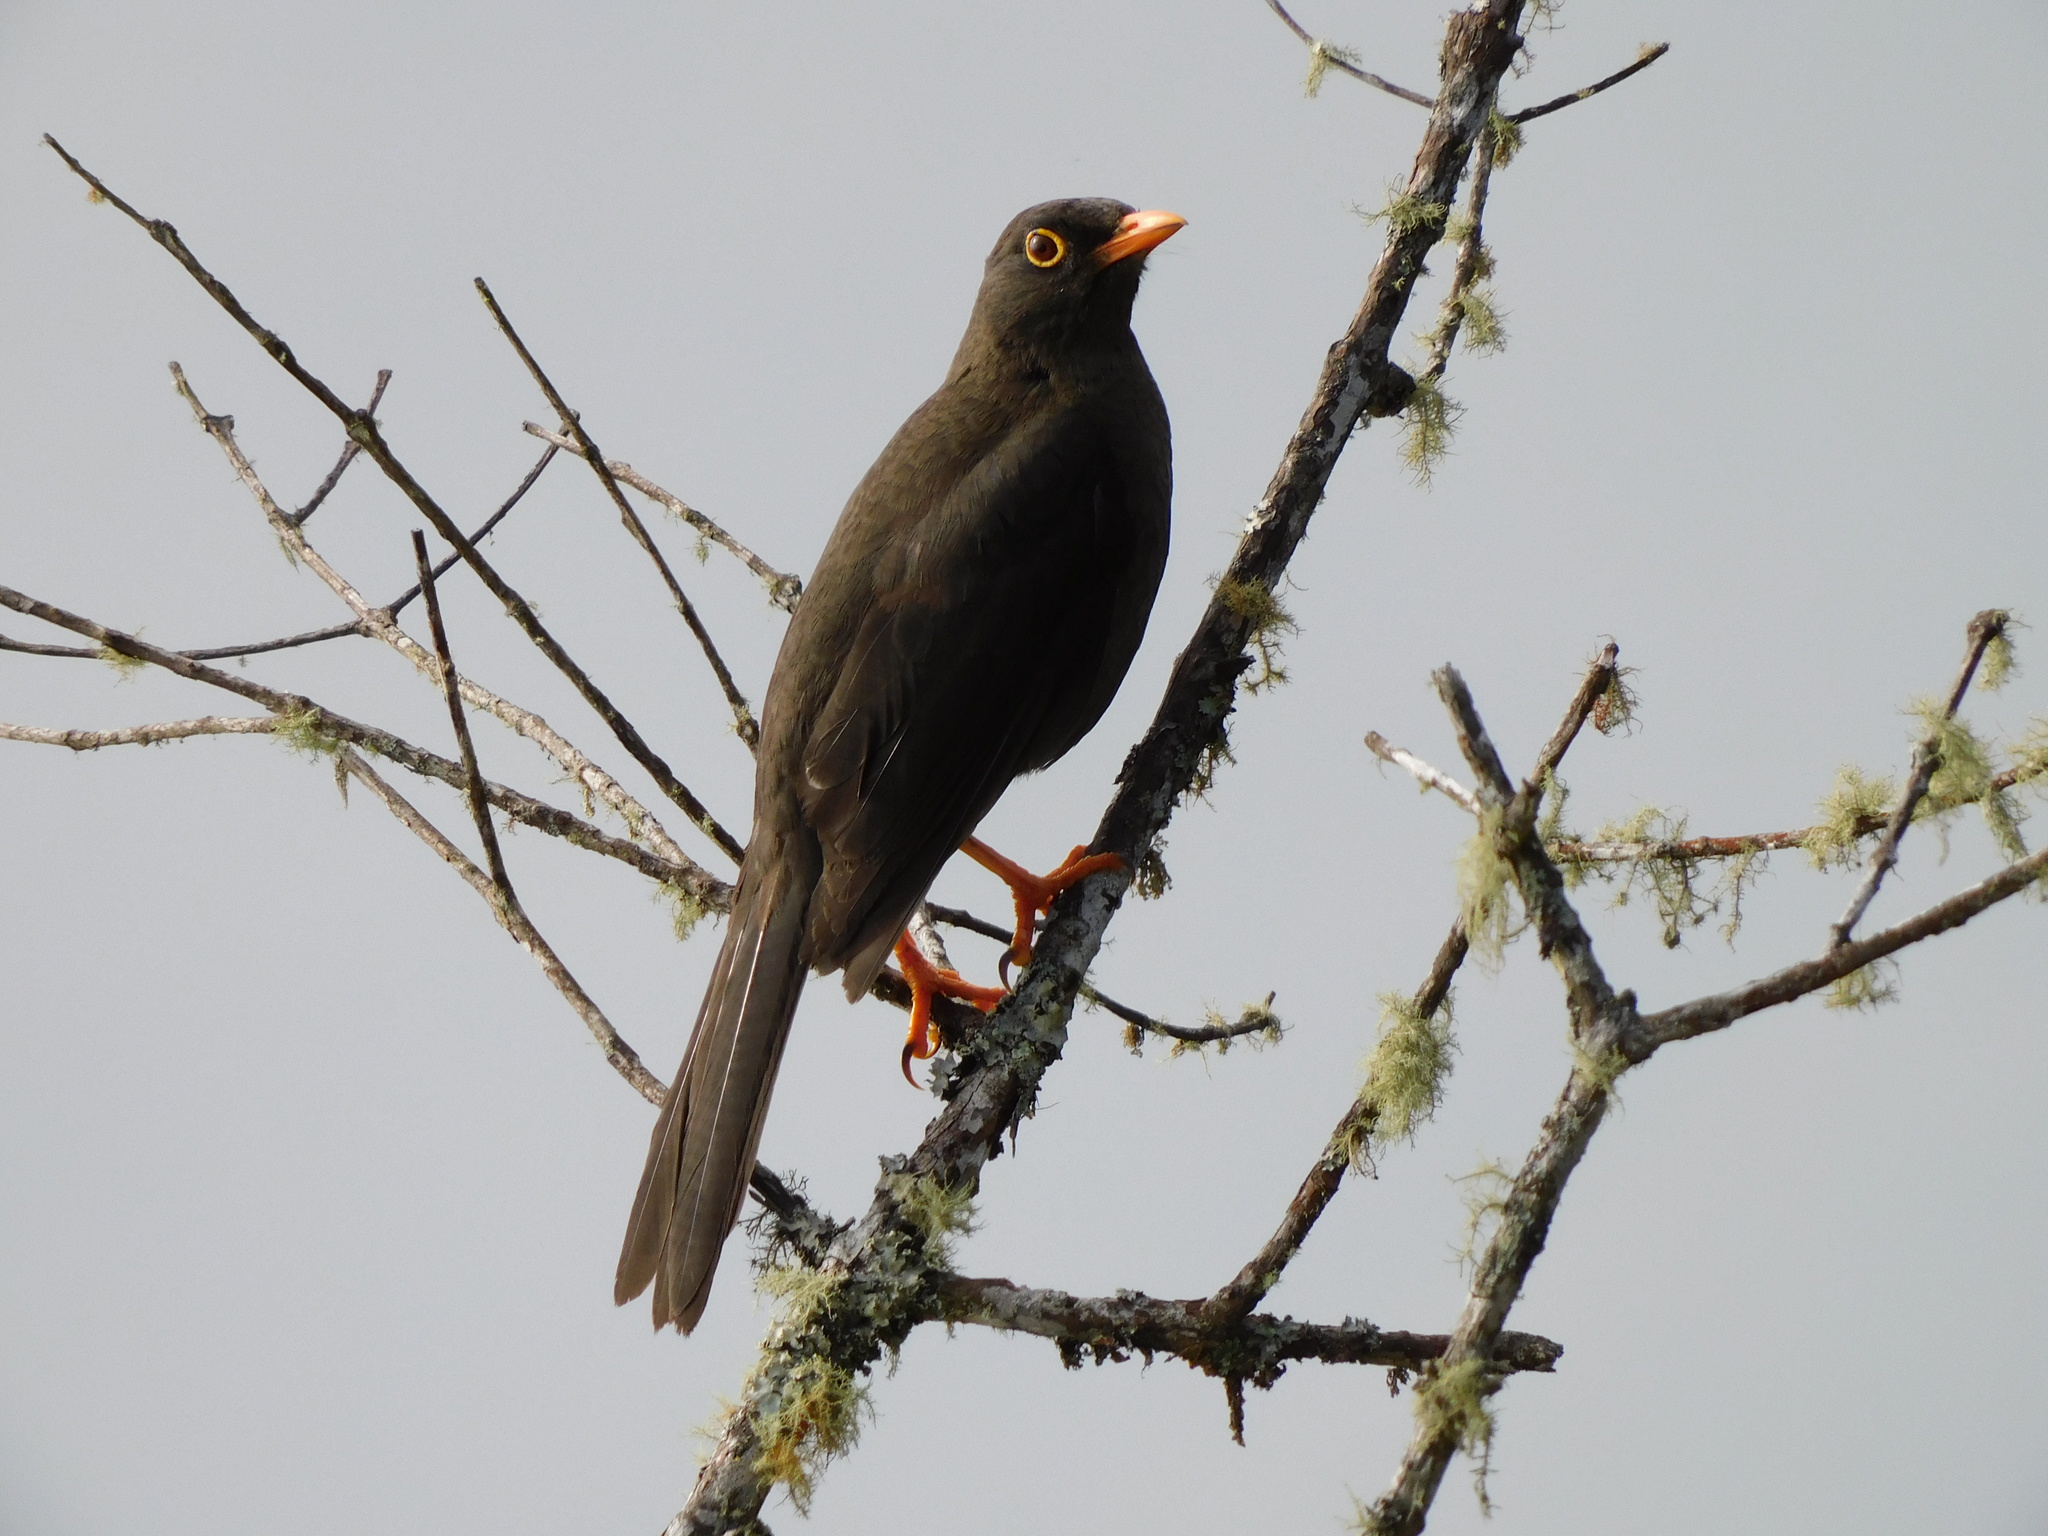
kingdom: Animalia
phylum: Chordata
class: Aves
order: Passeriformes
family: Turdidae
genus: Turdus
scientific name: Turdus fuscater
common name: Great thrush
